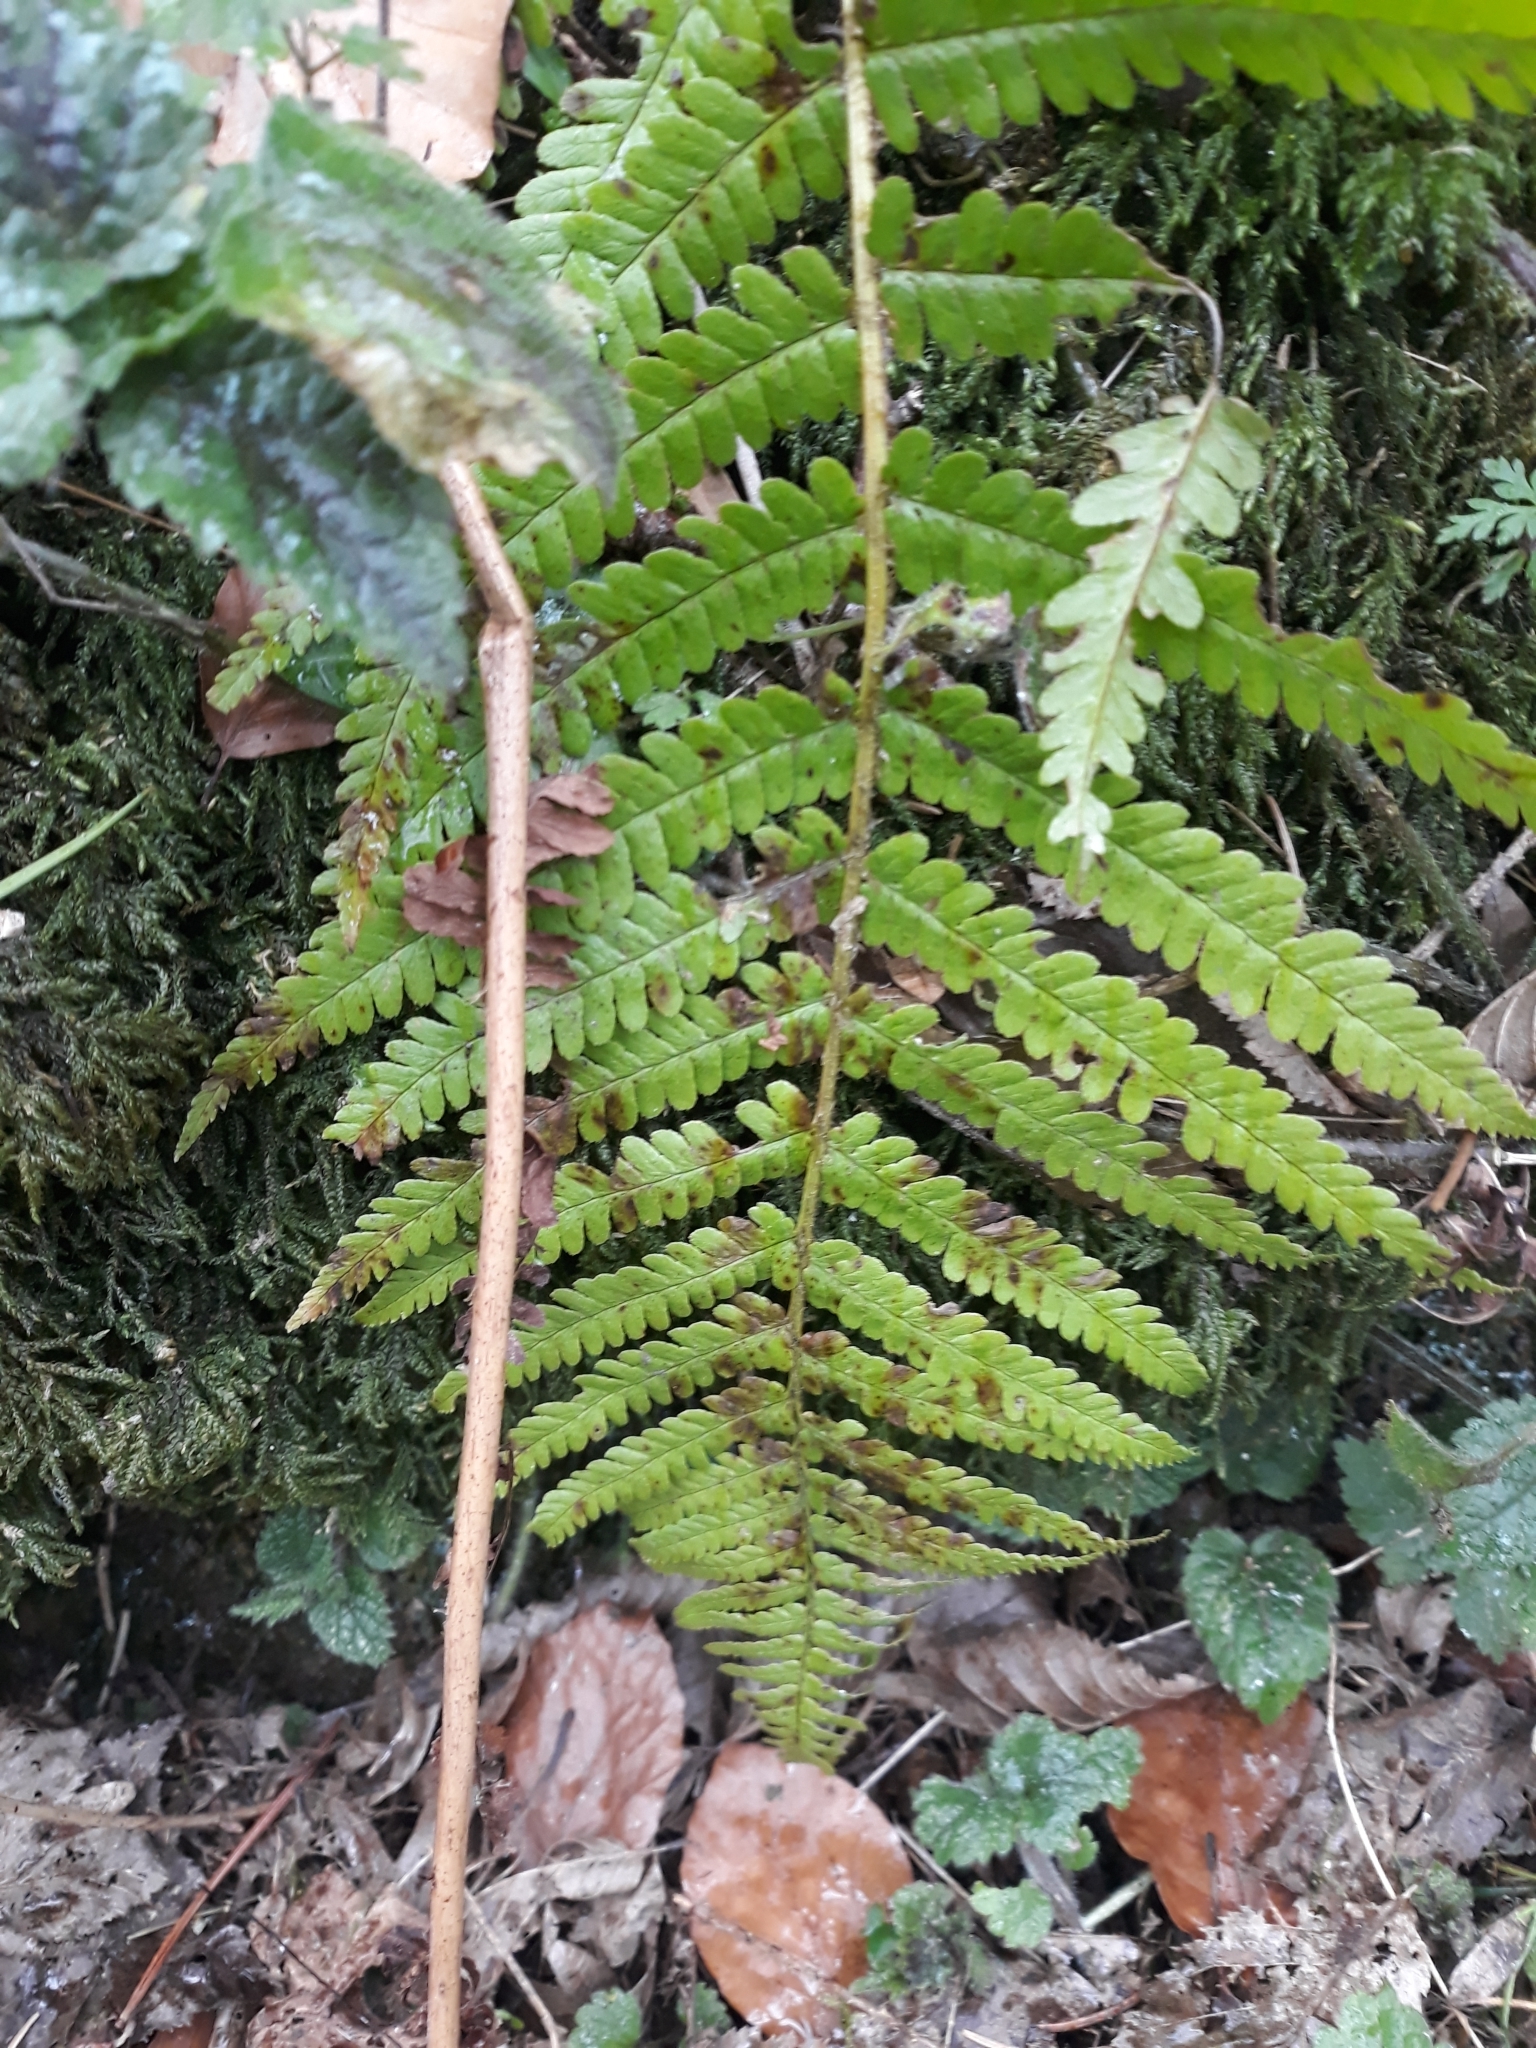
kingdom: Plantae
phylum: Tracheophyta
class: Polypodiopsida
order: Polypodiales
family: Dryopteridaceae
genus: Dryopteris
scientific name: Dryopteris filix-mas
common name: Male fern
